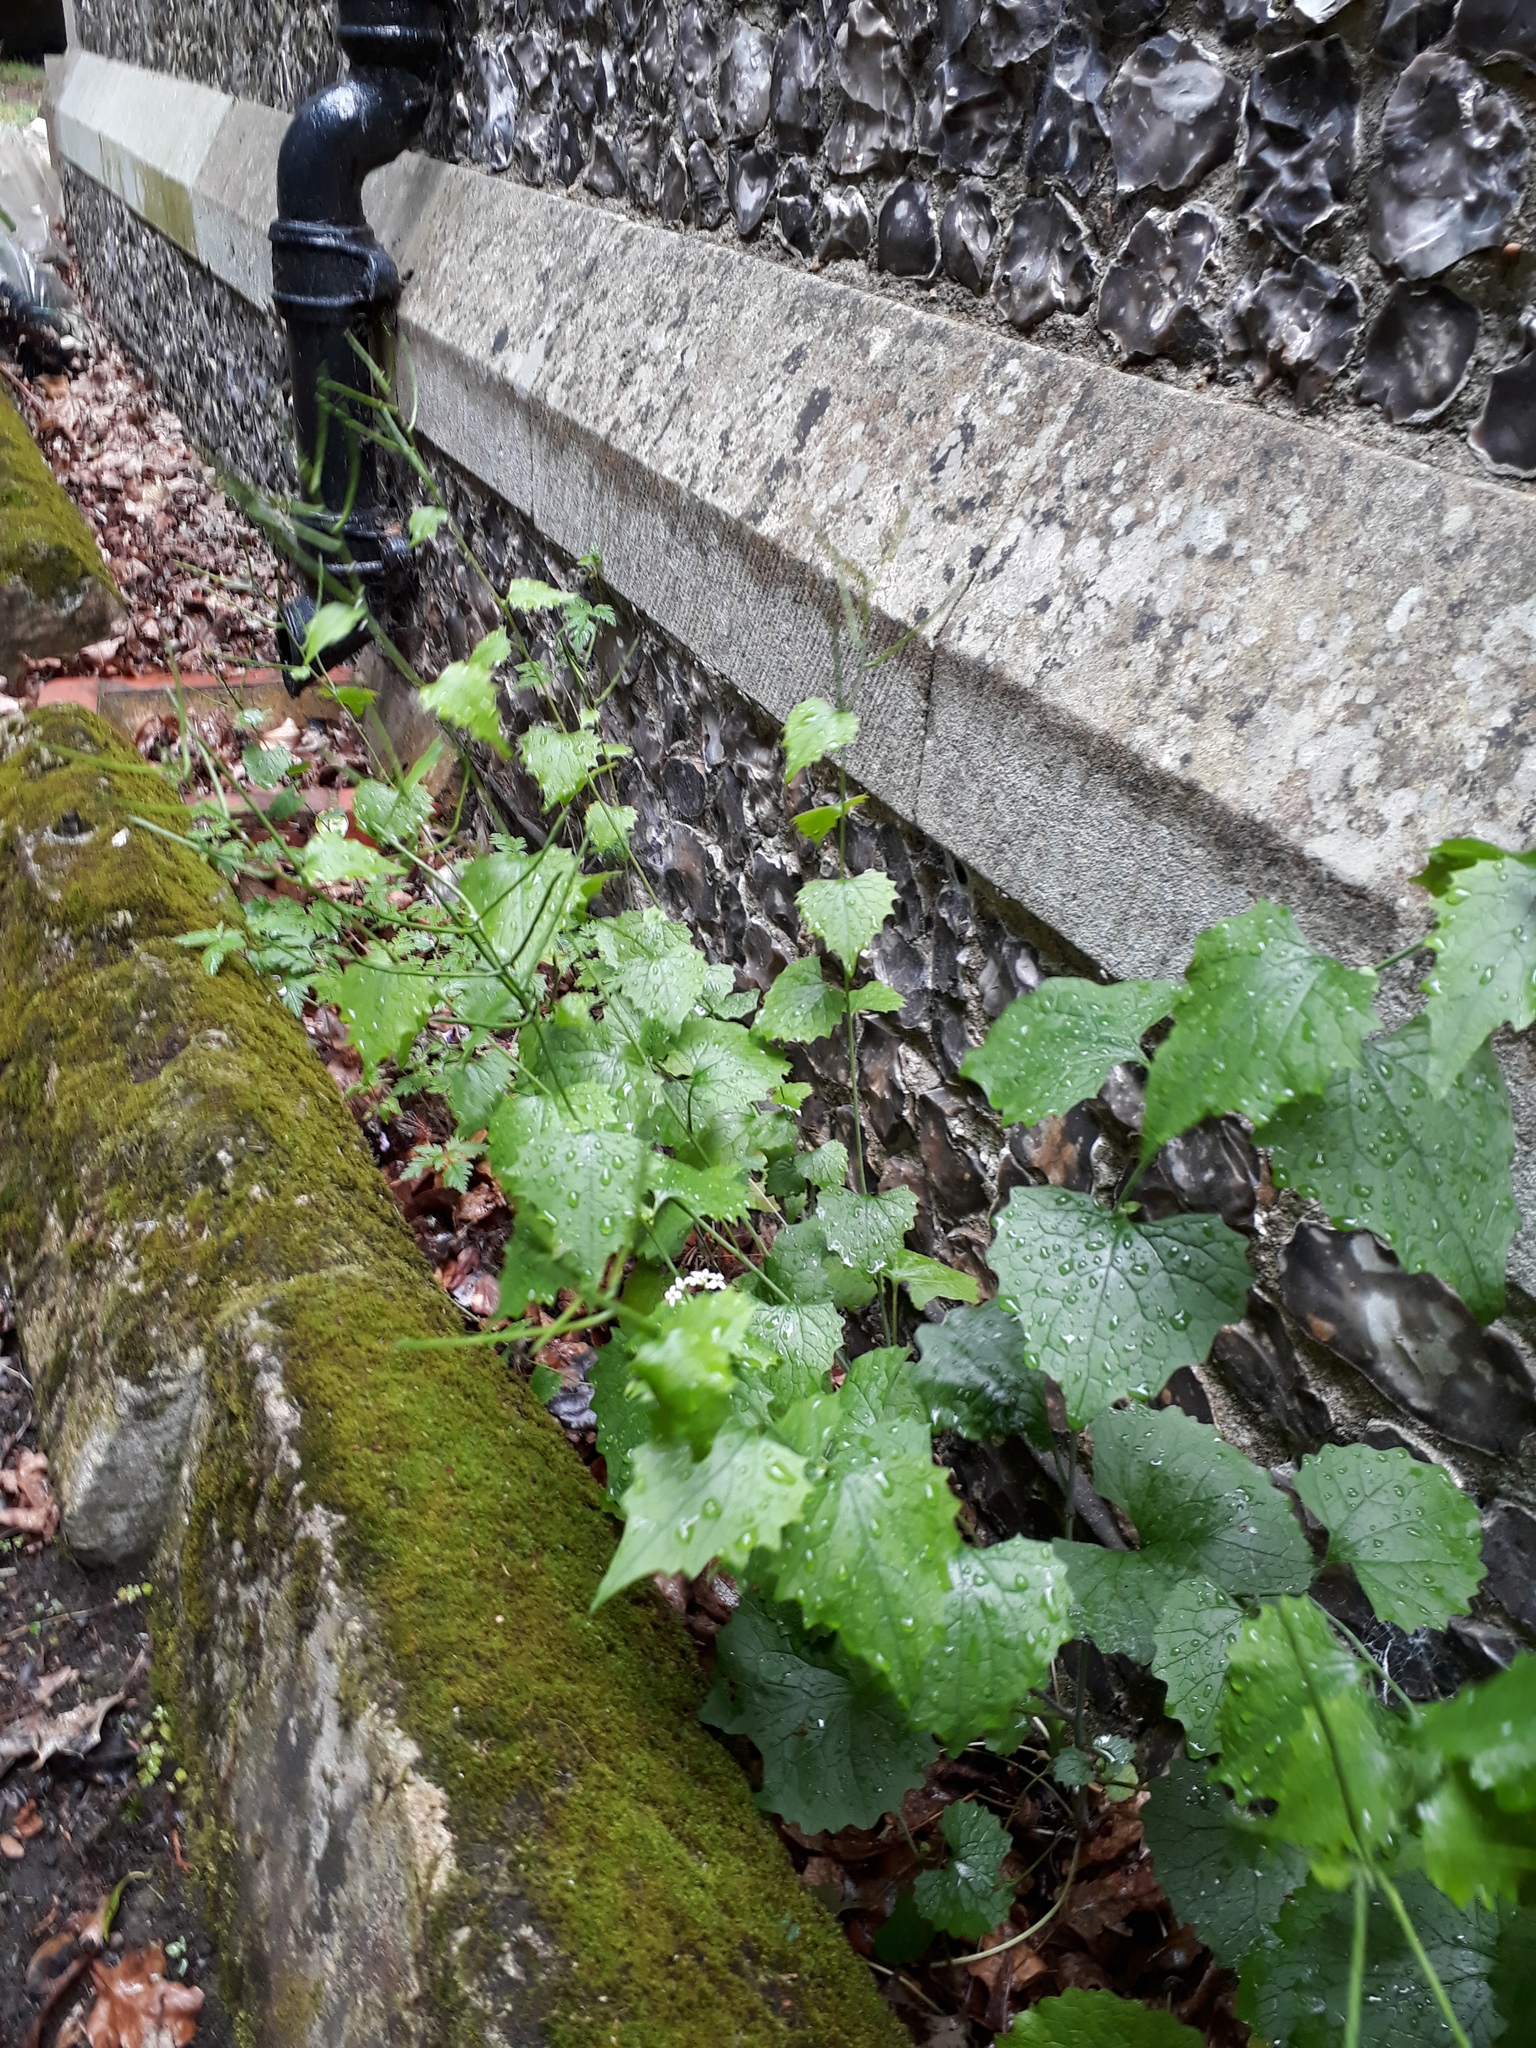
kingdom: Plantae
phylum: Tracheophyta
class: Magnoliopsida
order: Brassicales
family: Brassicaceae
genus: Alliaria
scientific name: Alliaria petiolata
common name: Garlic mustard
